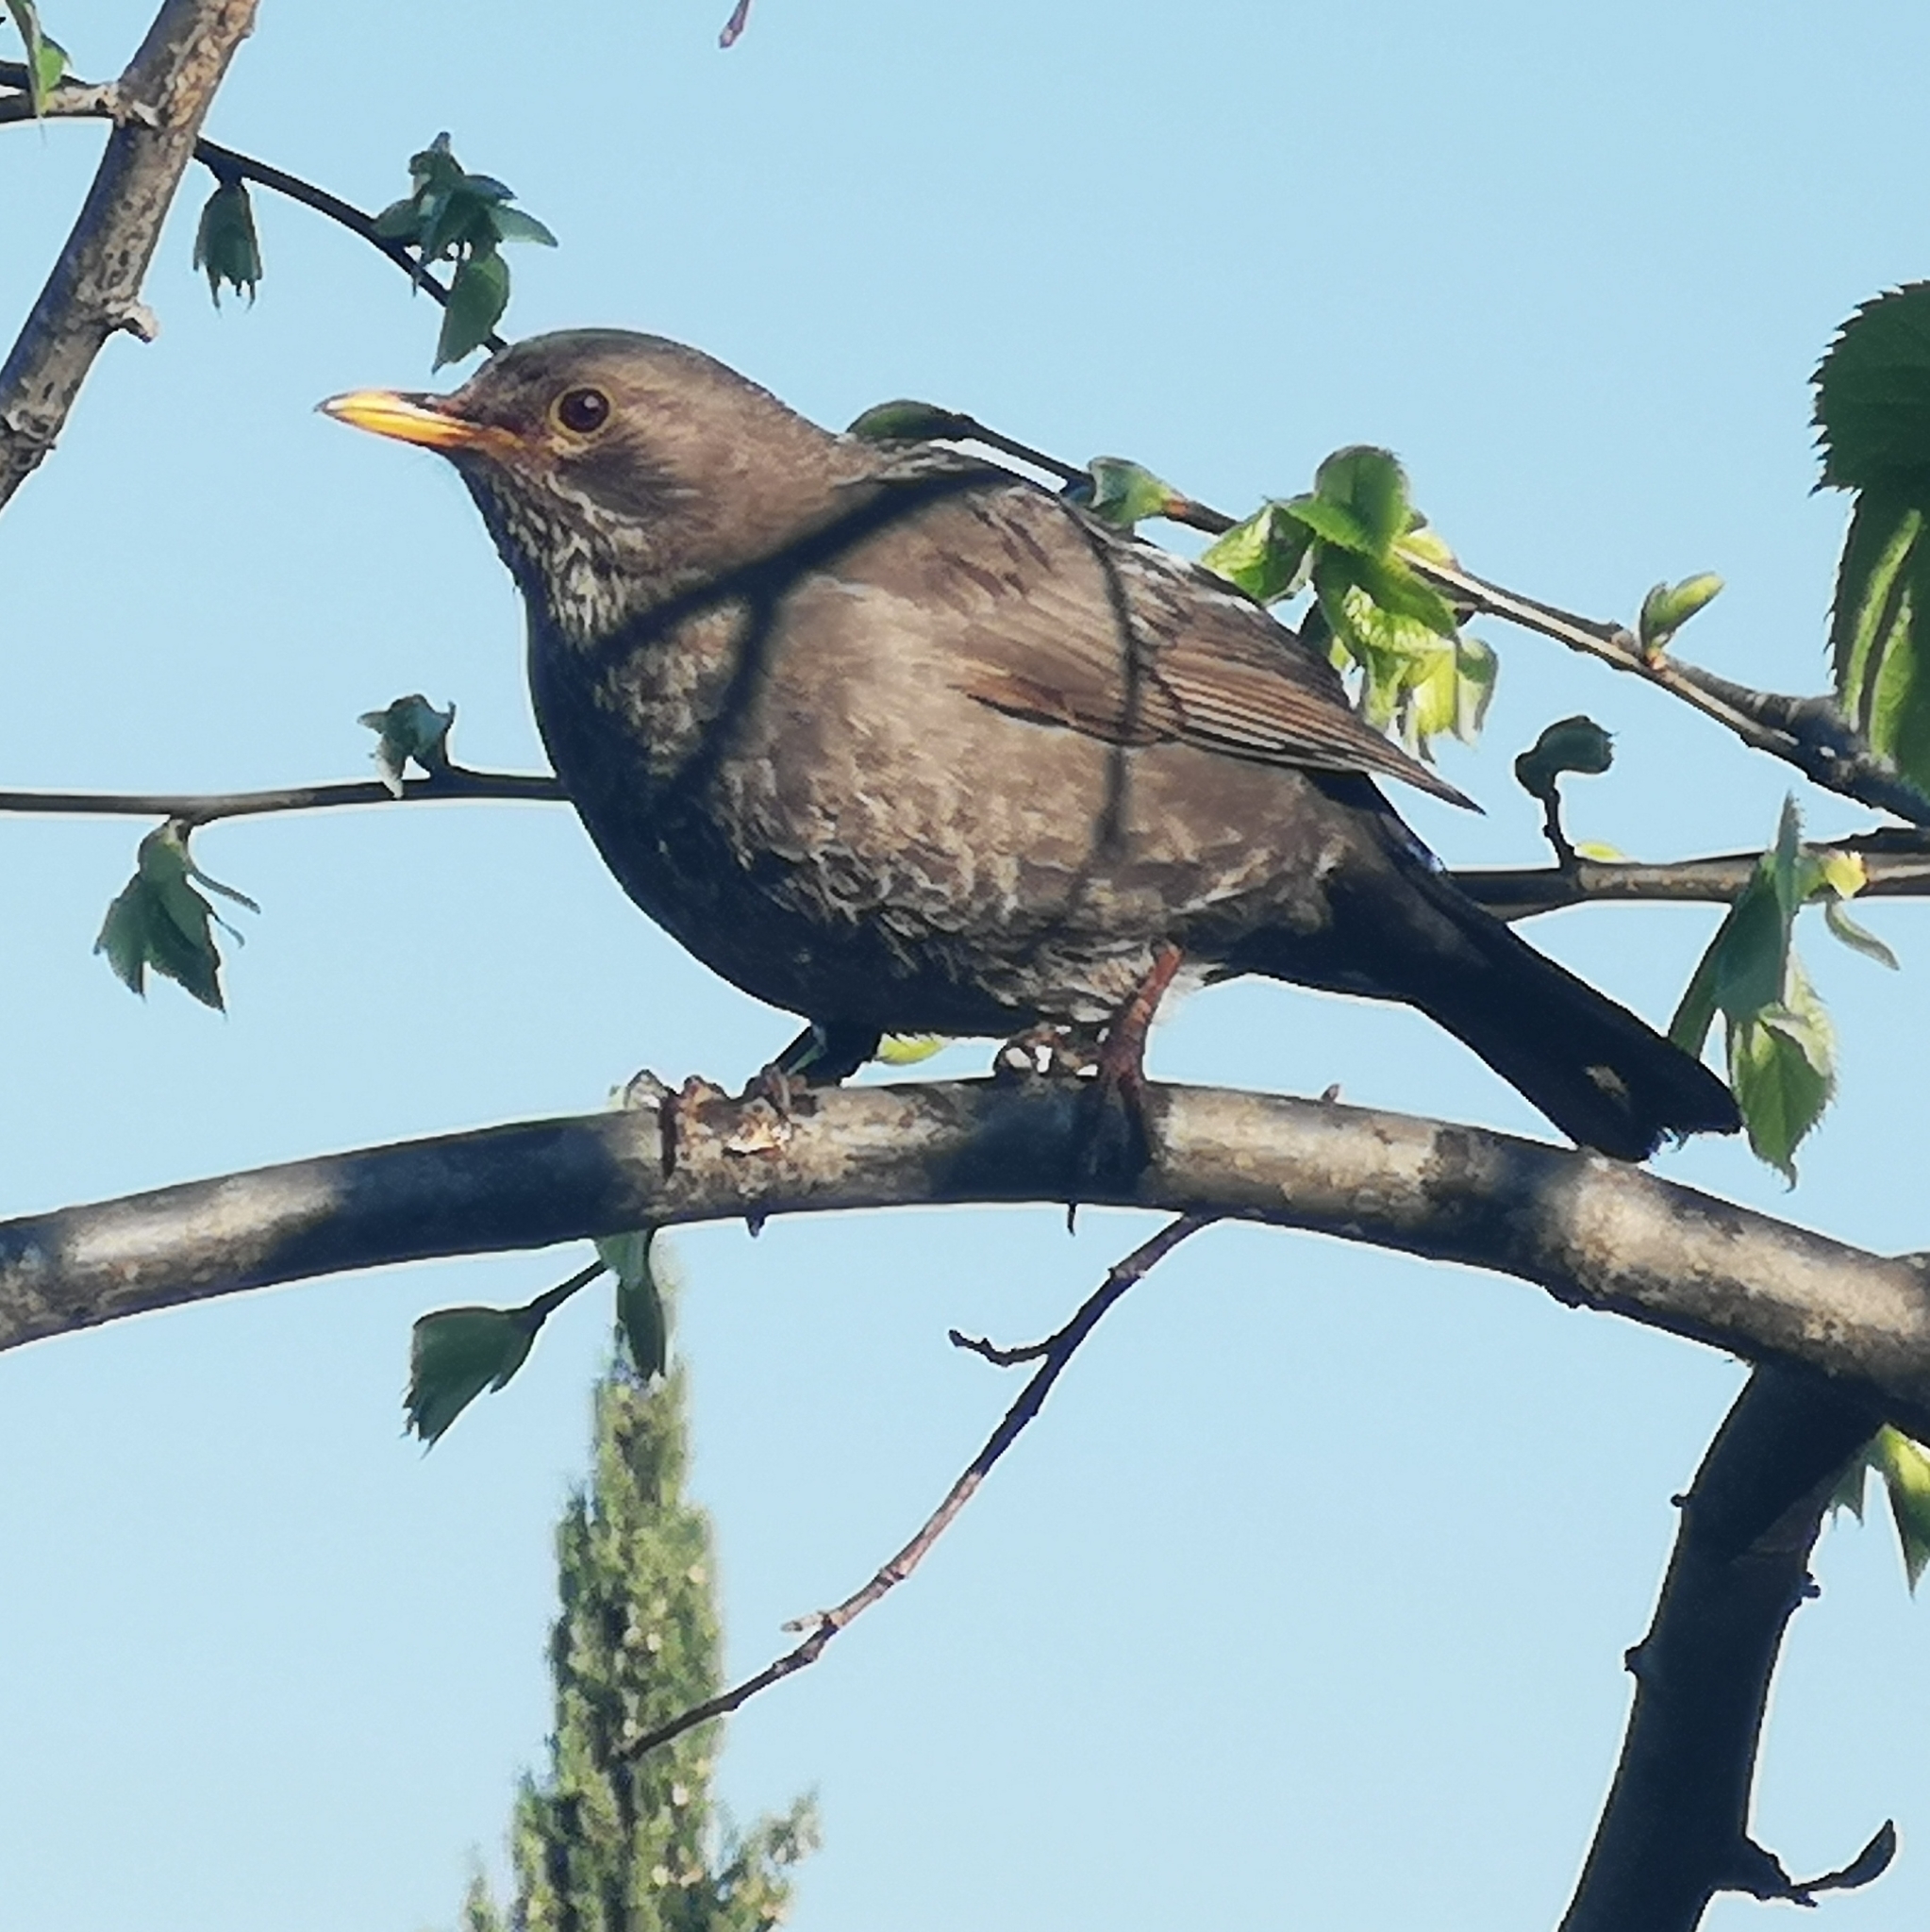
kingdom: Animalia
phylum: Chordata
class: Aves
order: Passeriformes
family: Turdidae
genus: Turdus
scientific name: Turdus merula
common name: Common blackbird
